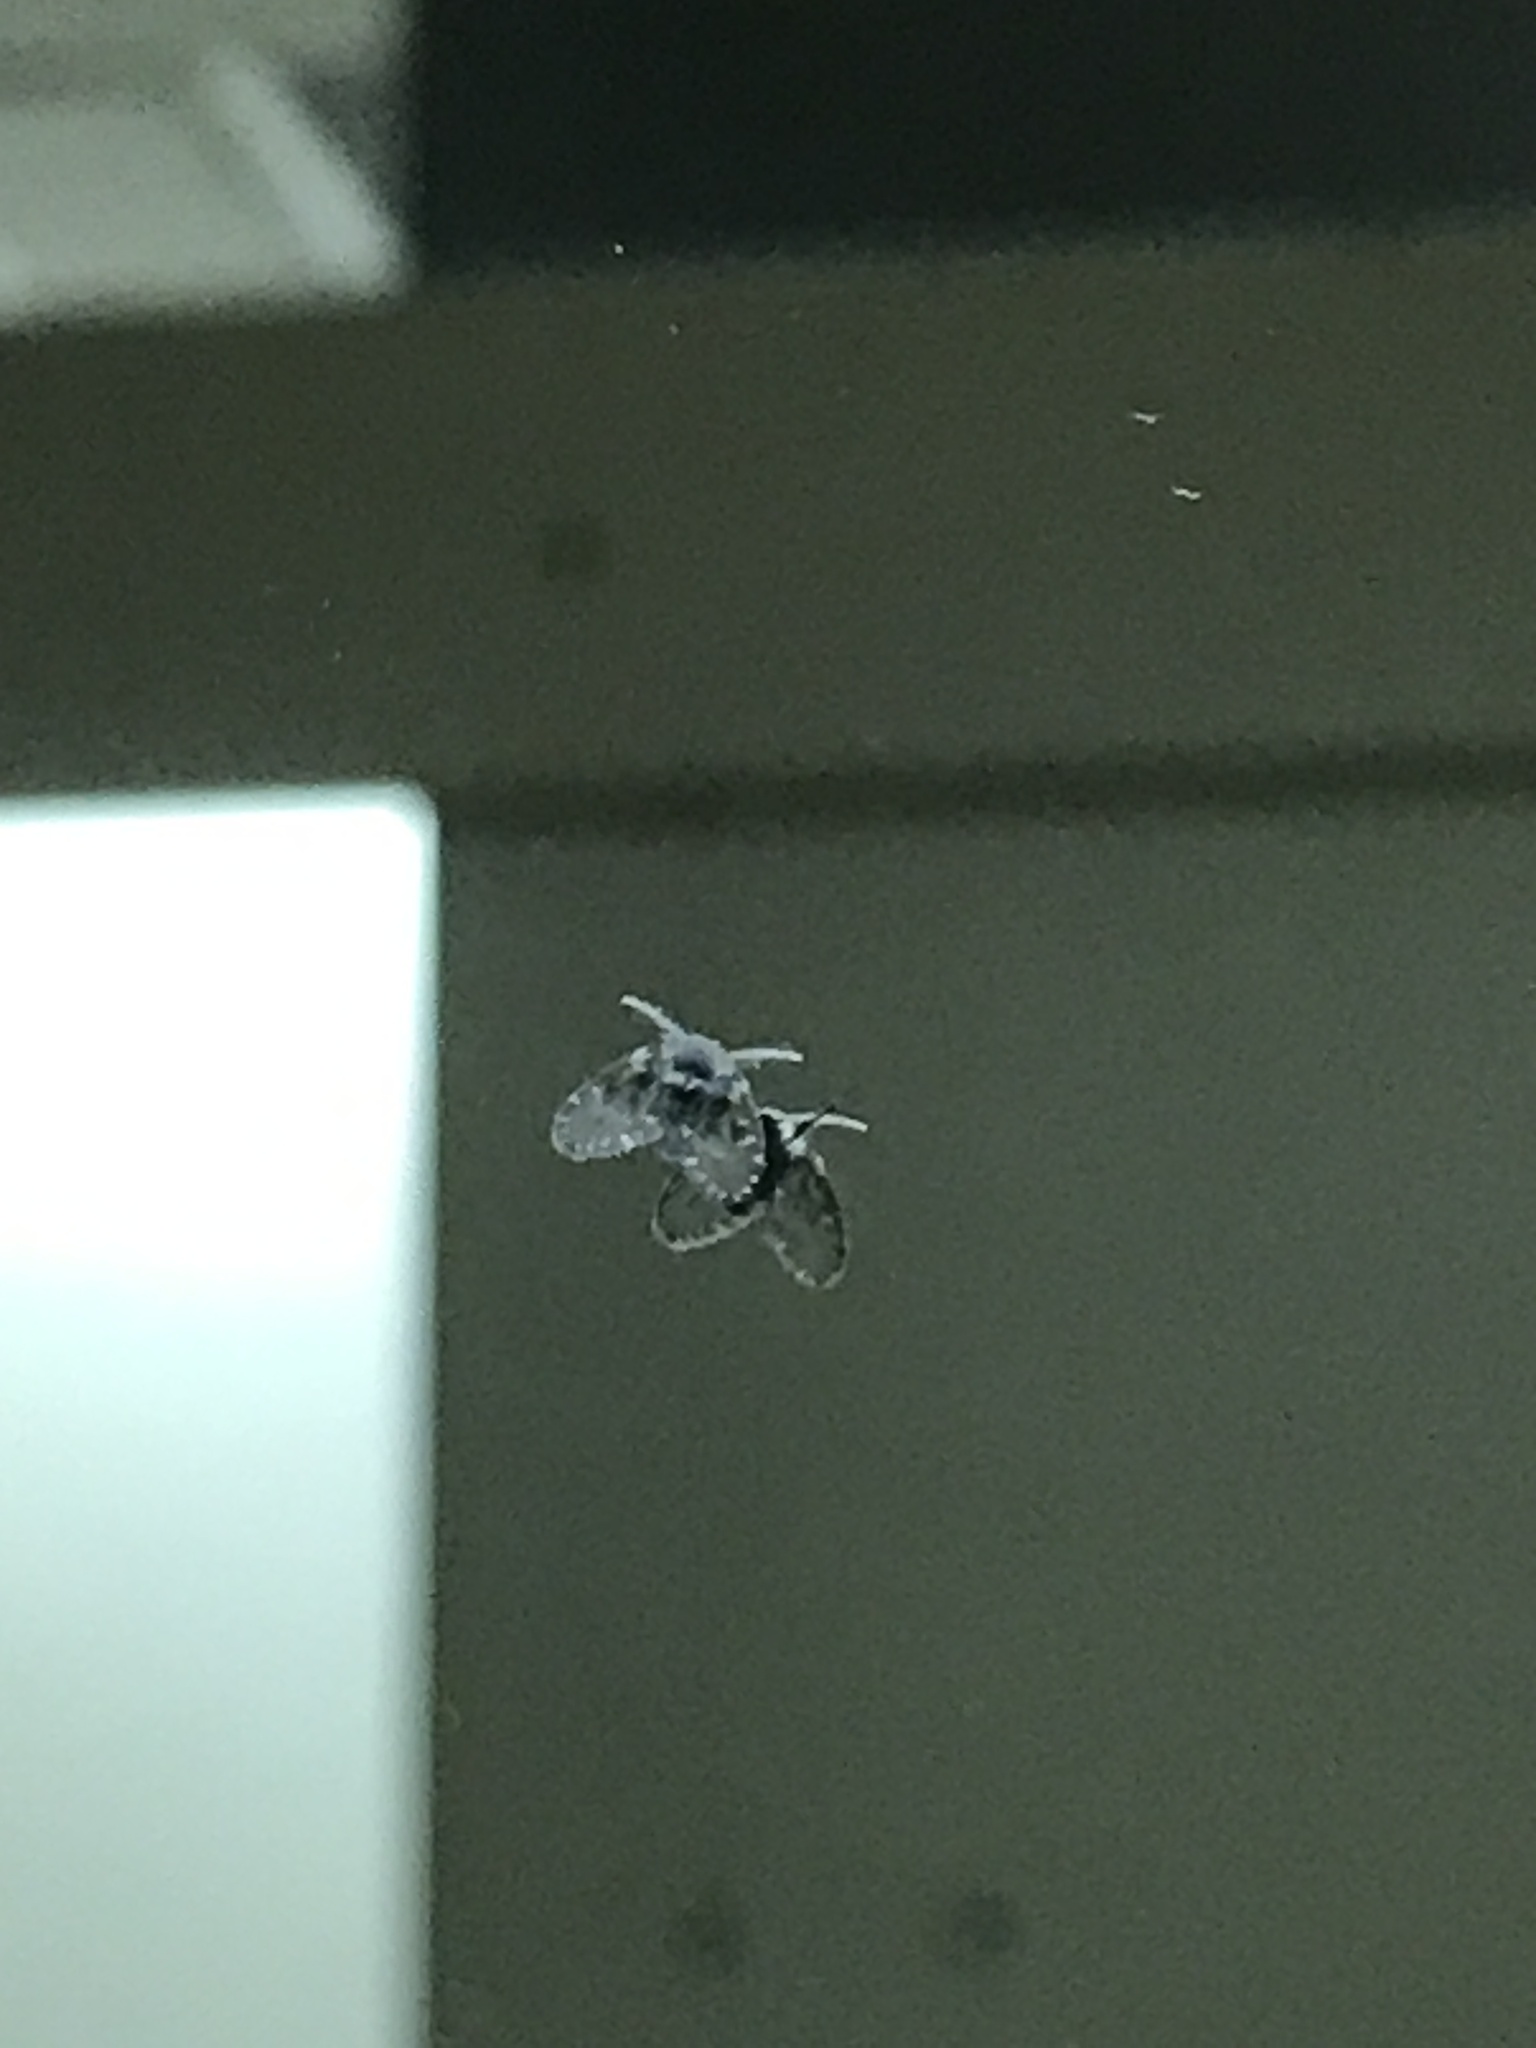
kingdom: Animalia
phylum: Arthropoda
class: Insecta
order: Diptera
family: Psychodidae
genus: Clogmia
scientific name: Clogmia albipunctatus
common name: White-spotted moth fly
